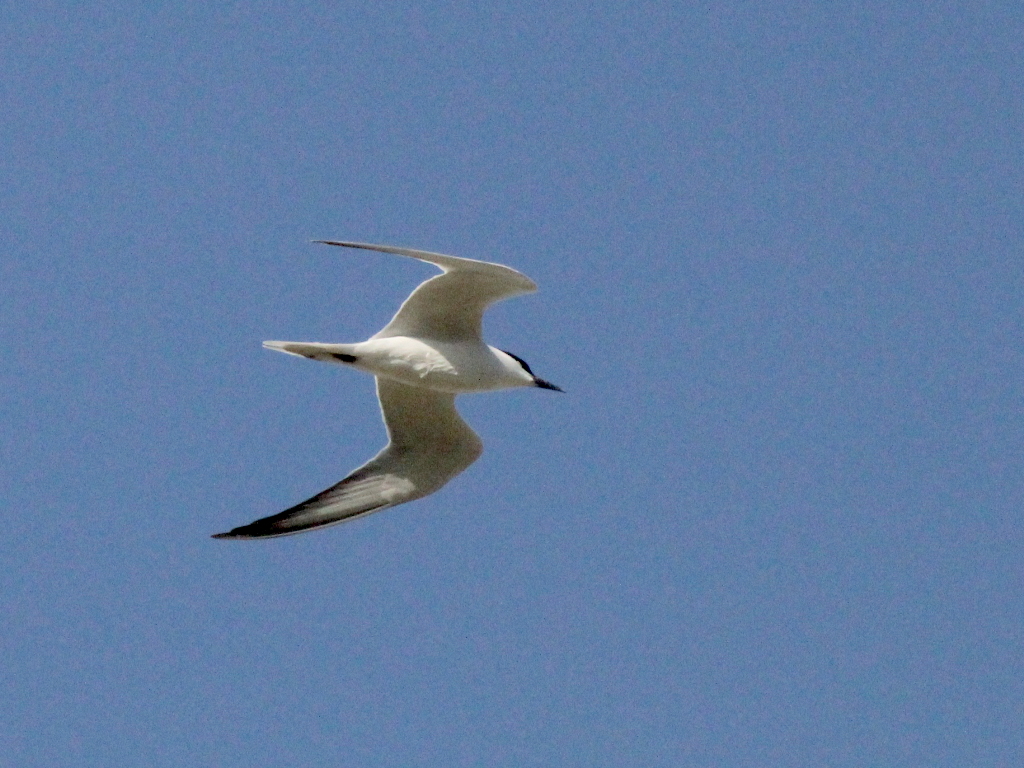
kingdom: Animalia
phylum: Chordata
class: Aves
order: Charadriiformes
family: Laridae
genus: Gelochelidon
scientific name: Gelochelidon nilotica
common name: Gull-billed tern
